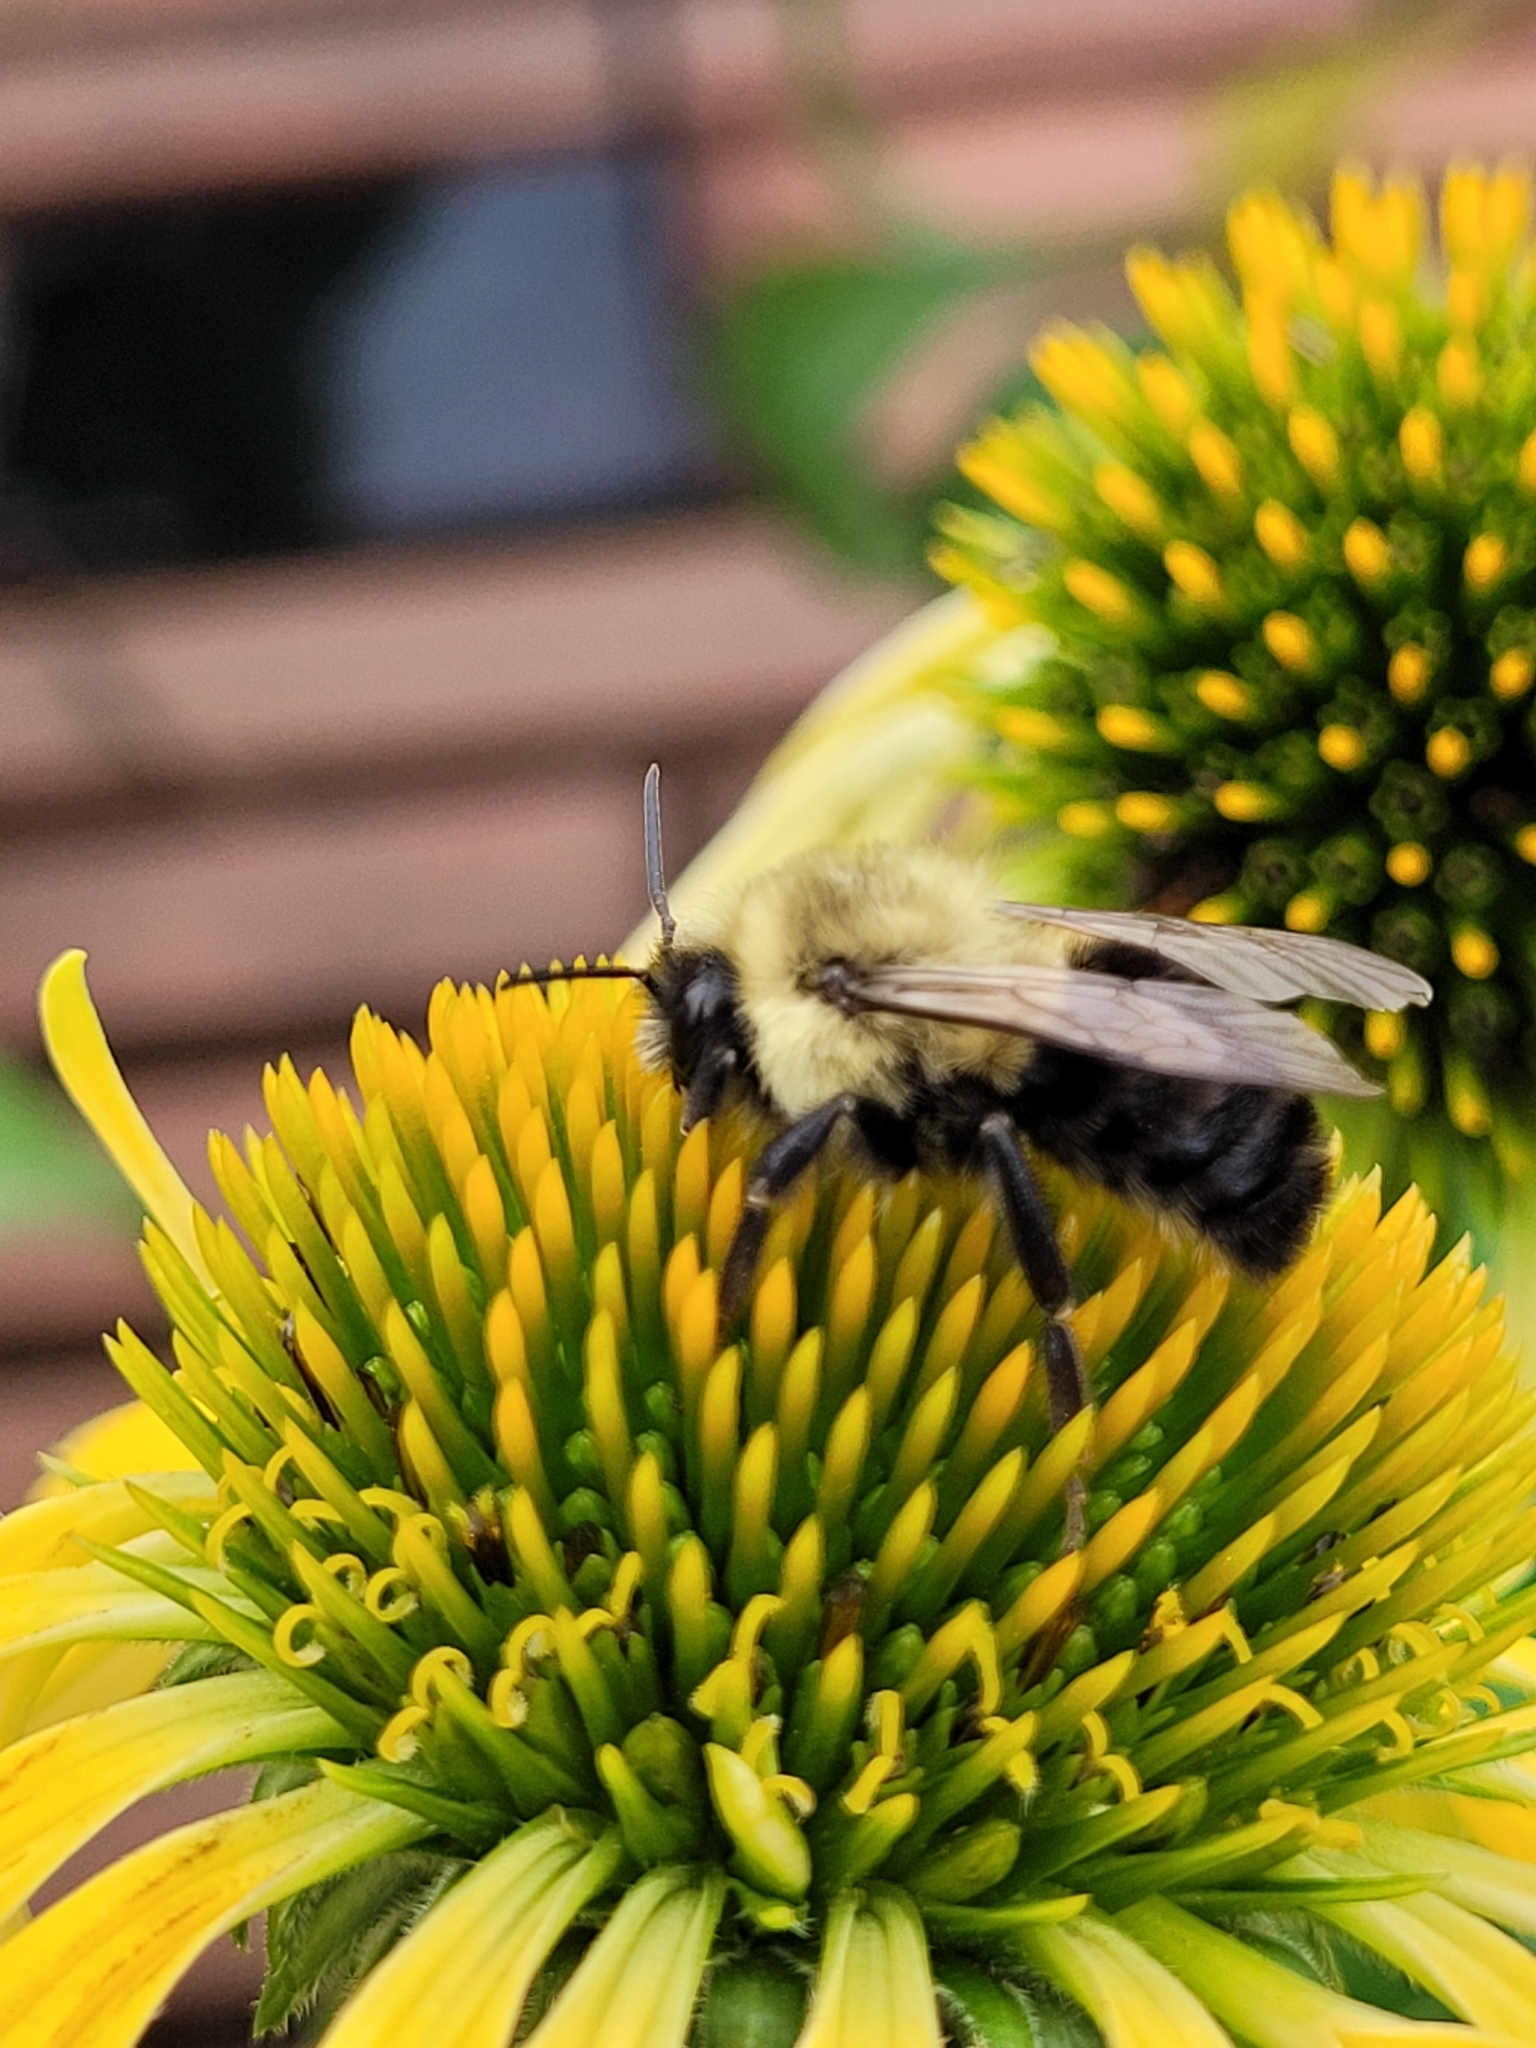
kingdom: Animalia
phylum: Arthropoda
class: Insecta
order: Hymenoptera
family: Apidae
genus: Bombus
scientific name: Bombus impatiens
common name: Common eastern bumble bee
